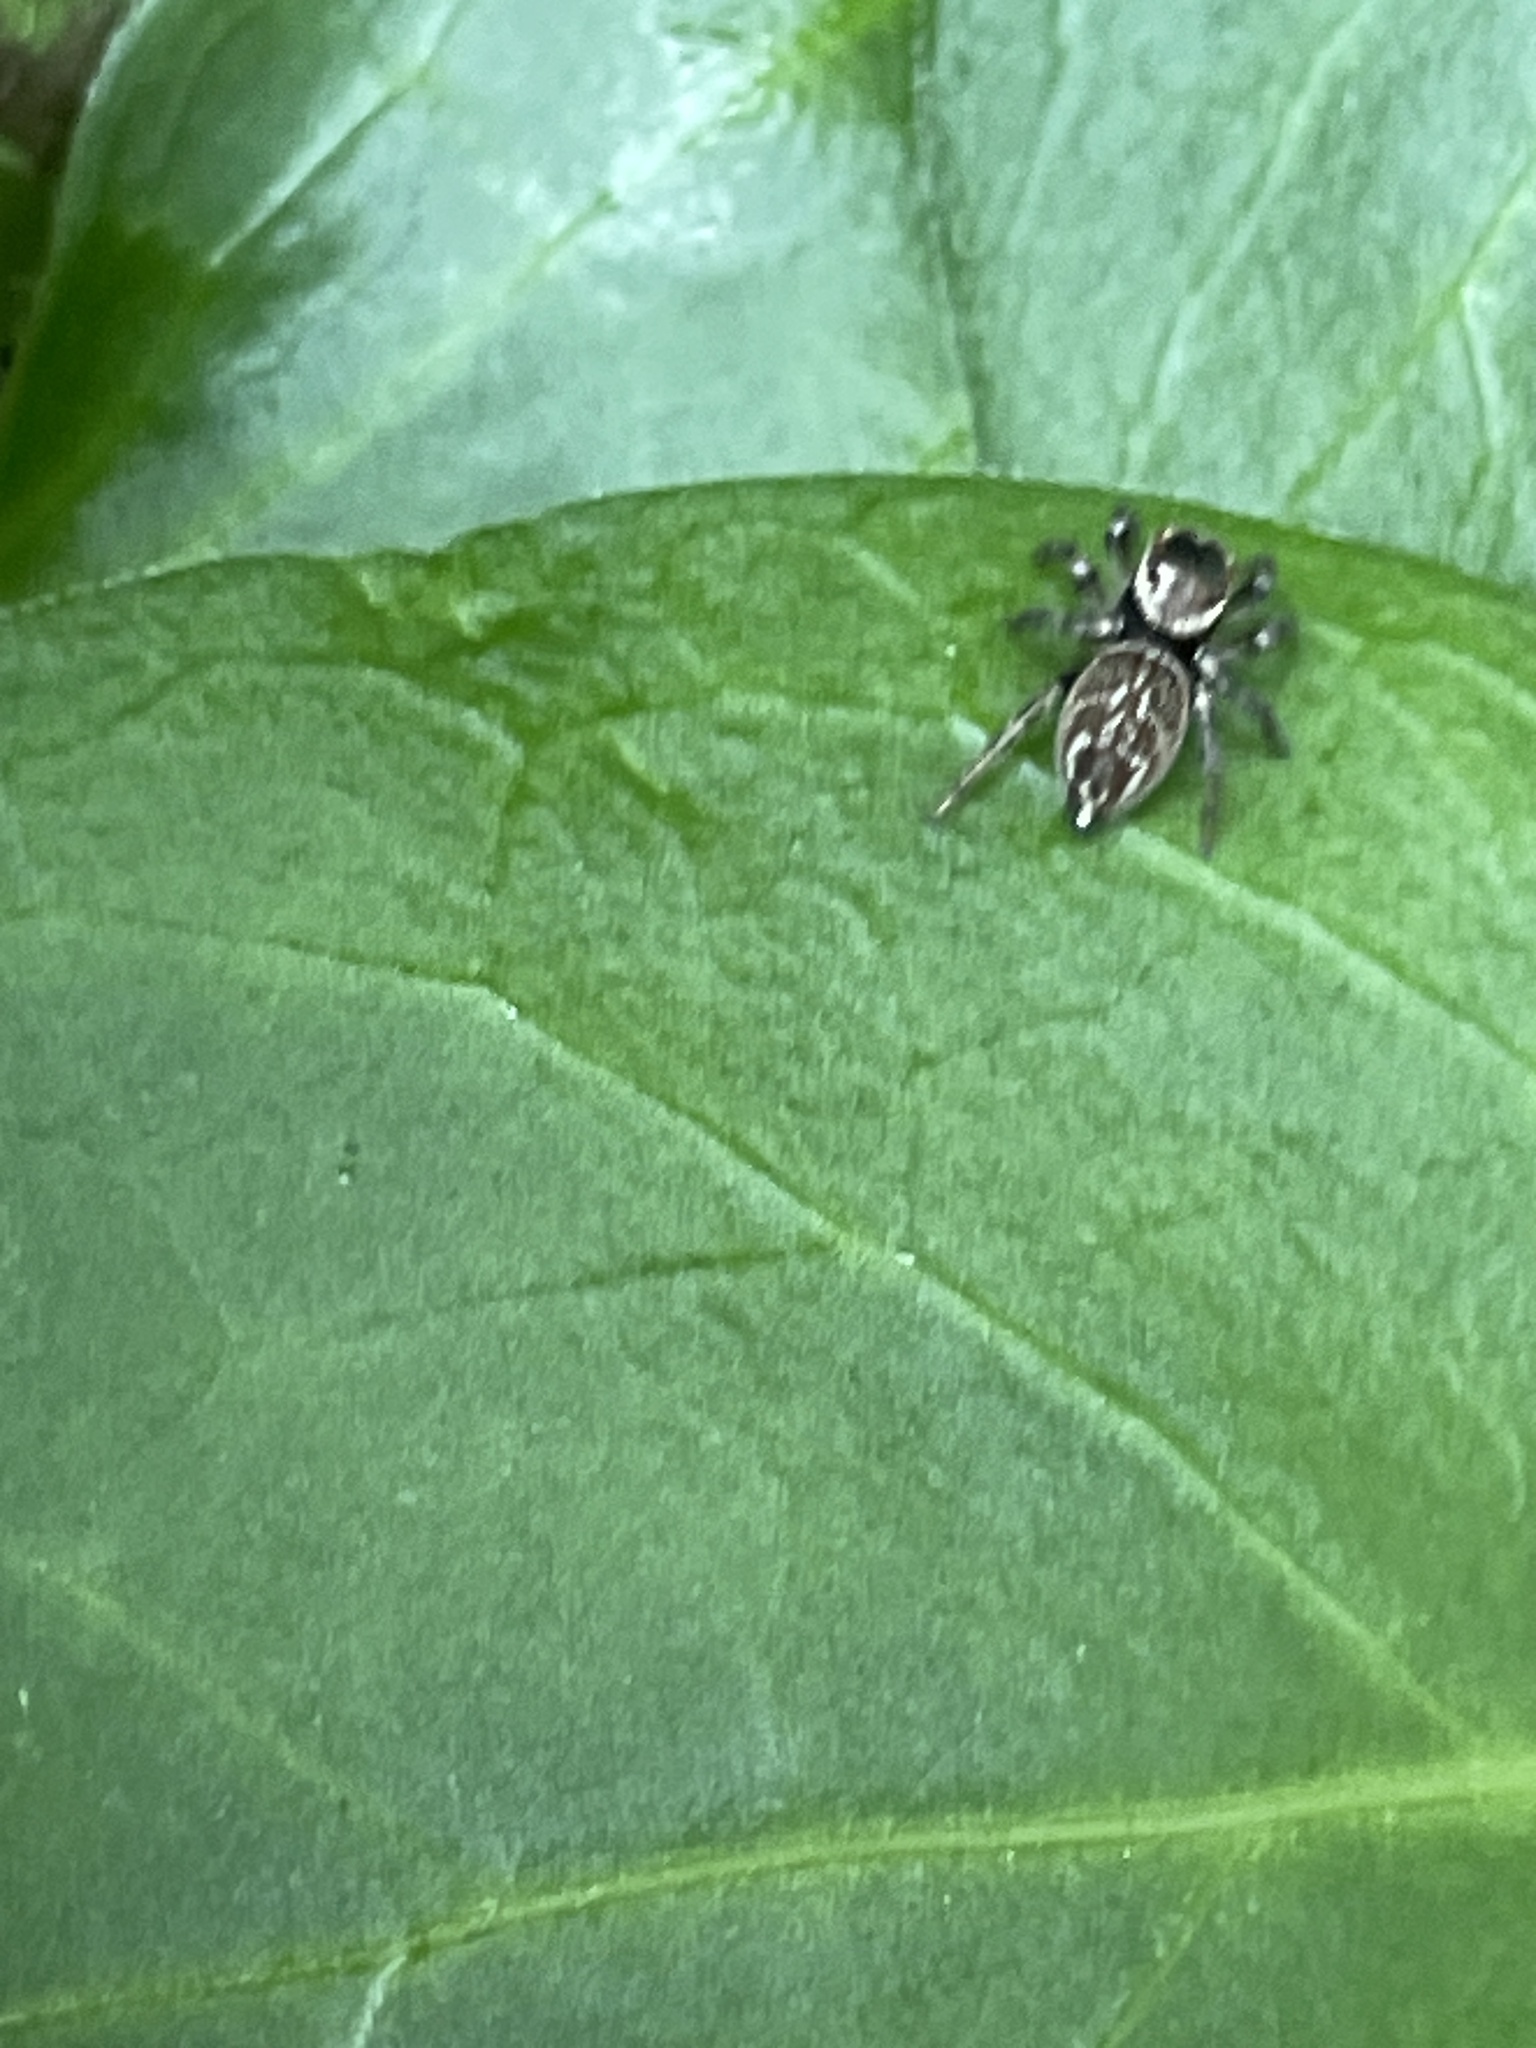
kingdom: Animalia
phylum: Arthropoda
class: Arachnida
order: Araneae
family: Salticidae
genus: Maratus
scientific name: Maratus griseus
